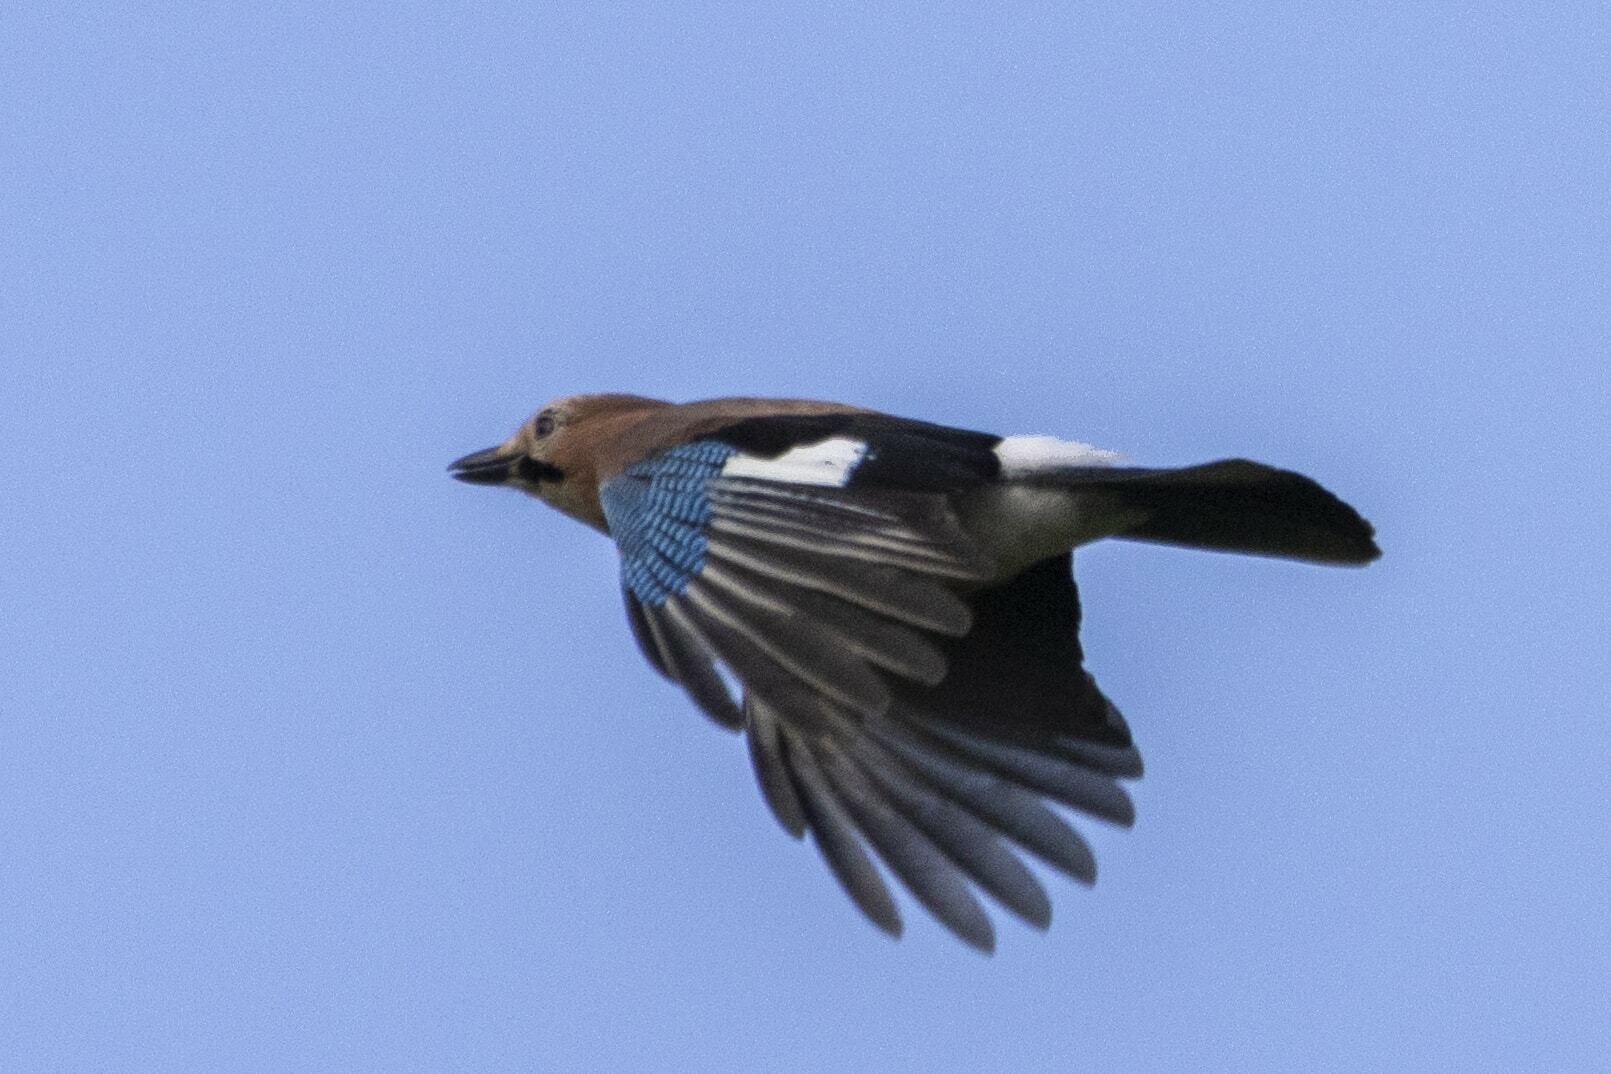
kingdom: Animalia
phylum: Chordata
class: Aves
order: Passeriformes
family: Corvidae
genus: Garrulus
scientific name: Garrulus glandarius
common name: Eurasian jay
